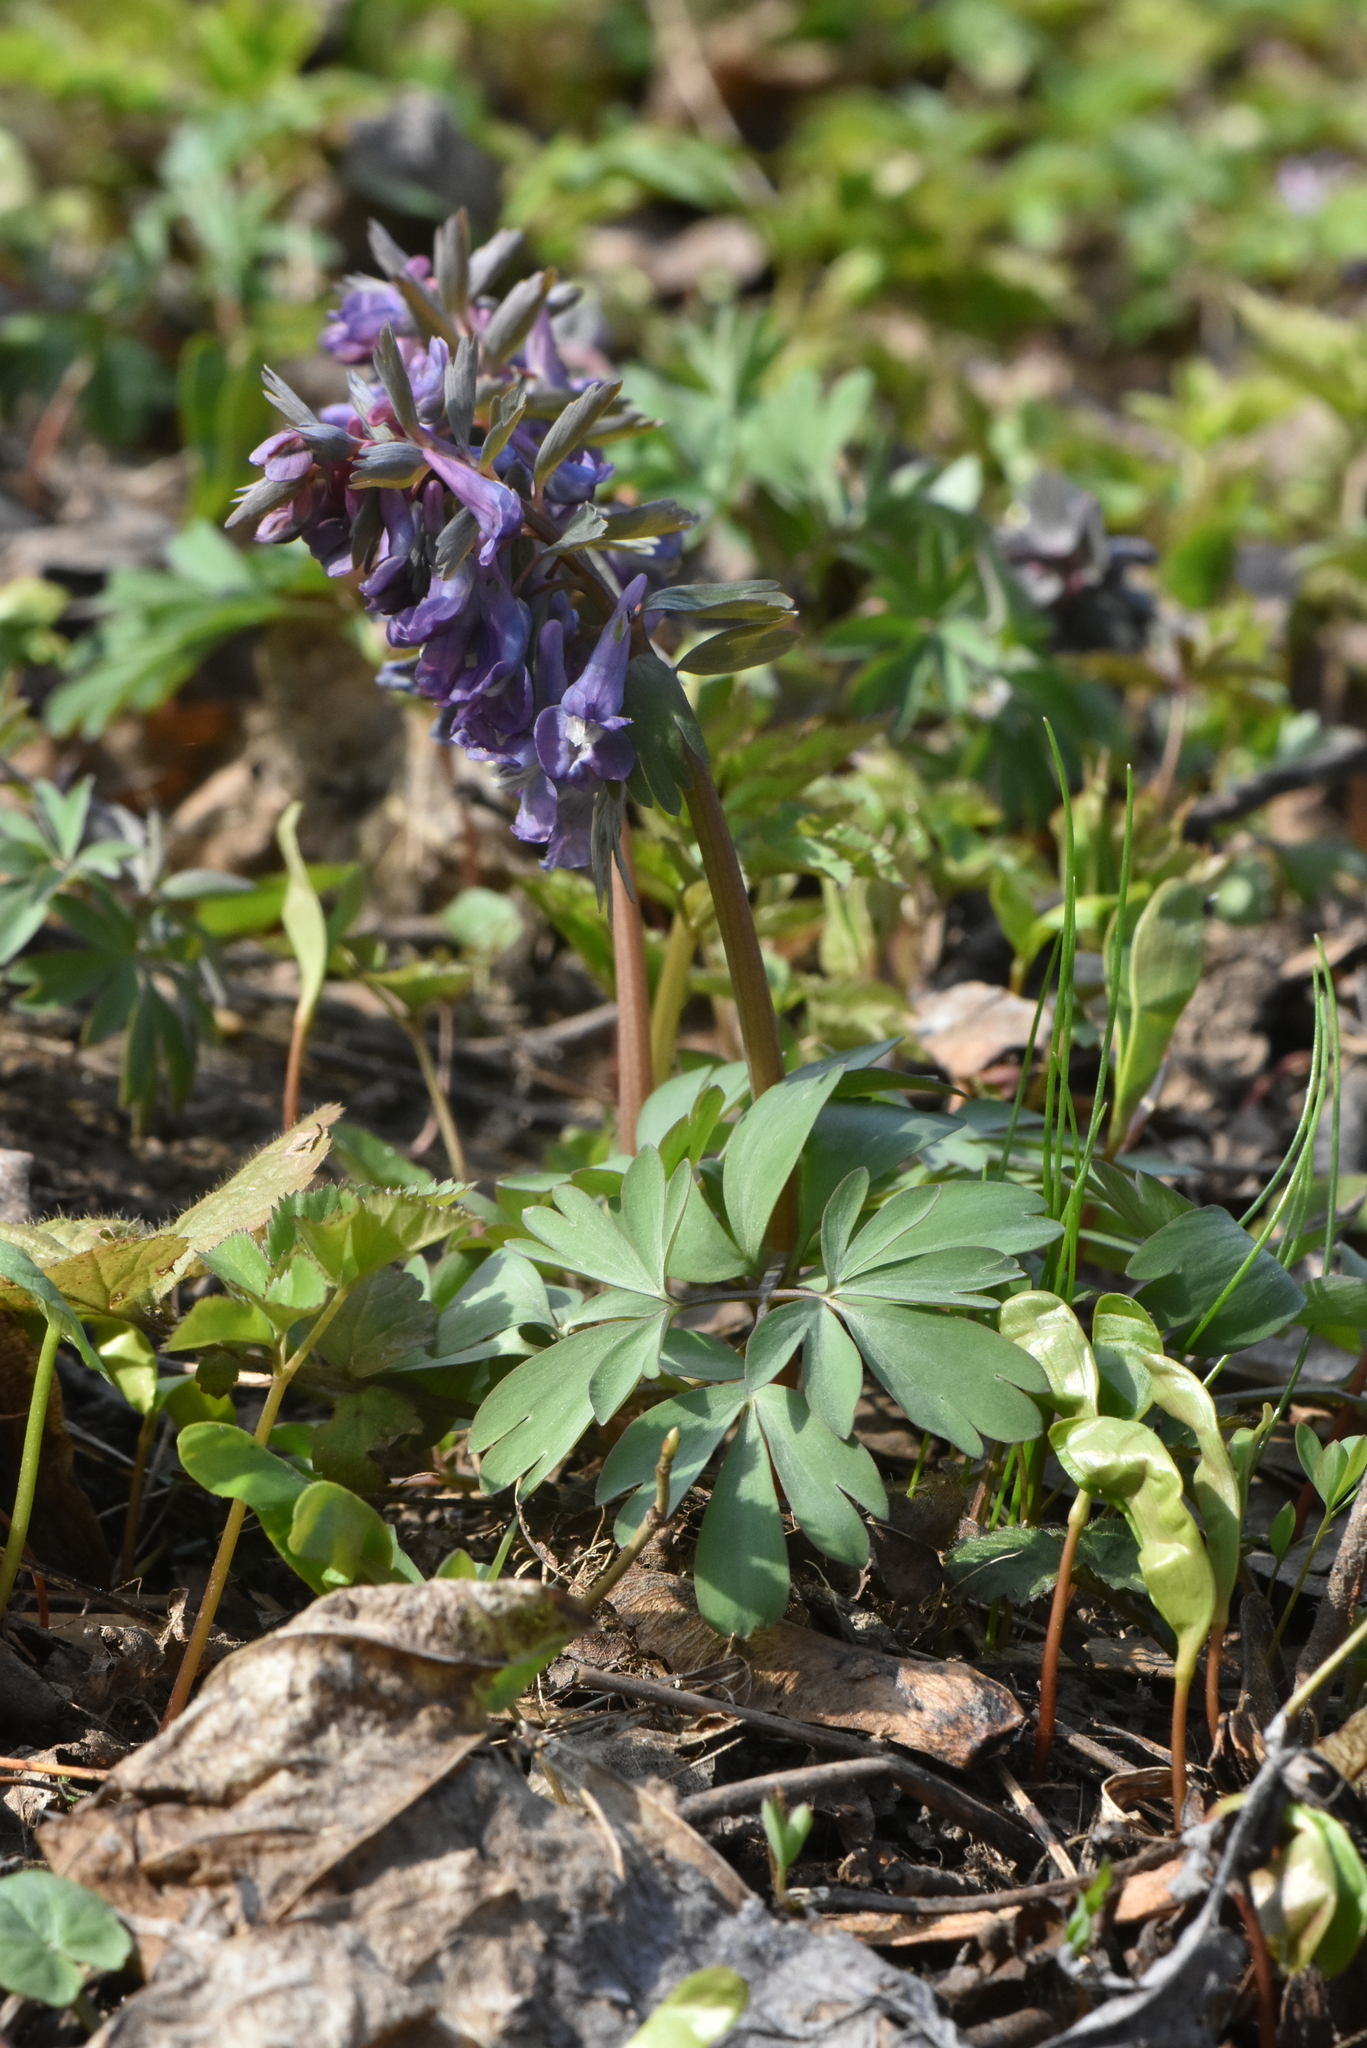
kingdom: Plantae
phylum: Tracheophyta
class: Magnoliopsida
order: Ranunculales
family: Papaveraceae
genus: Corydalis
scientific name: Corydalis solida
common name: Bird-in-a-bush
